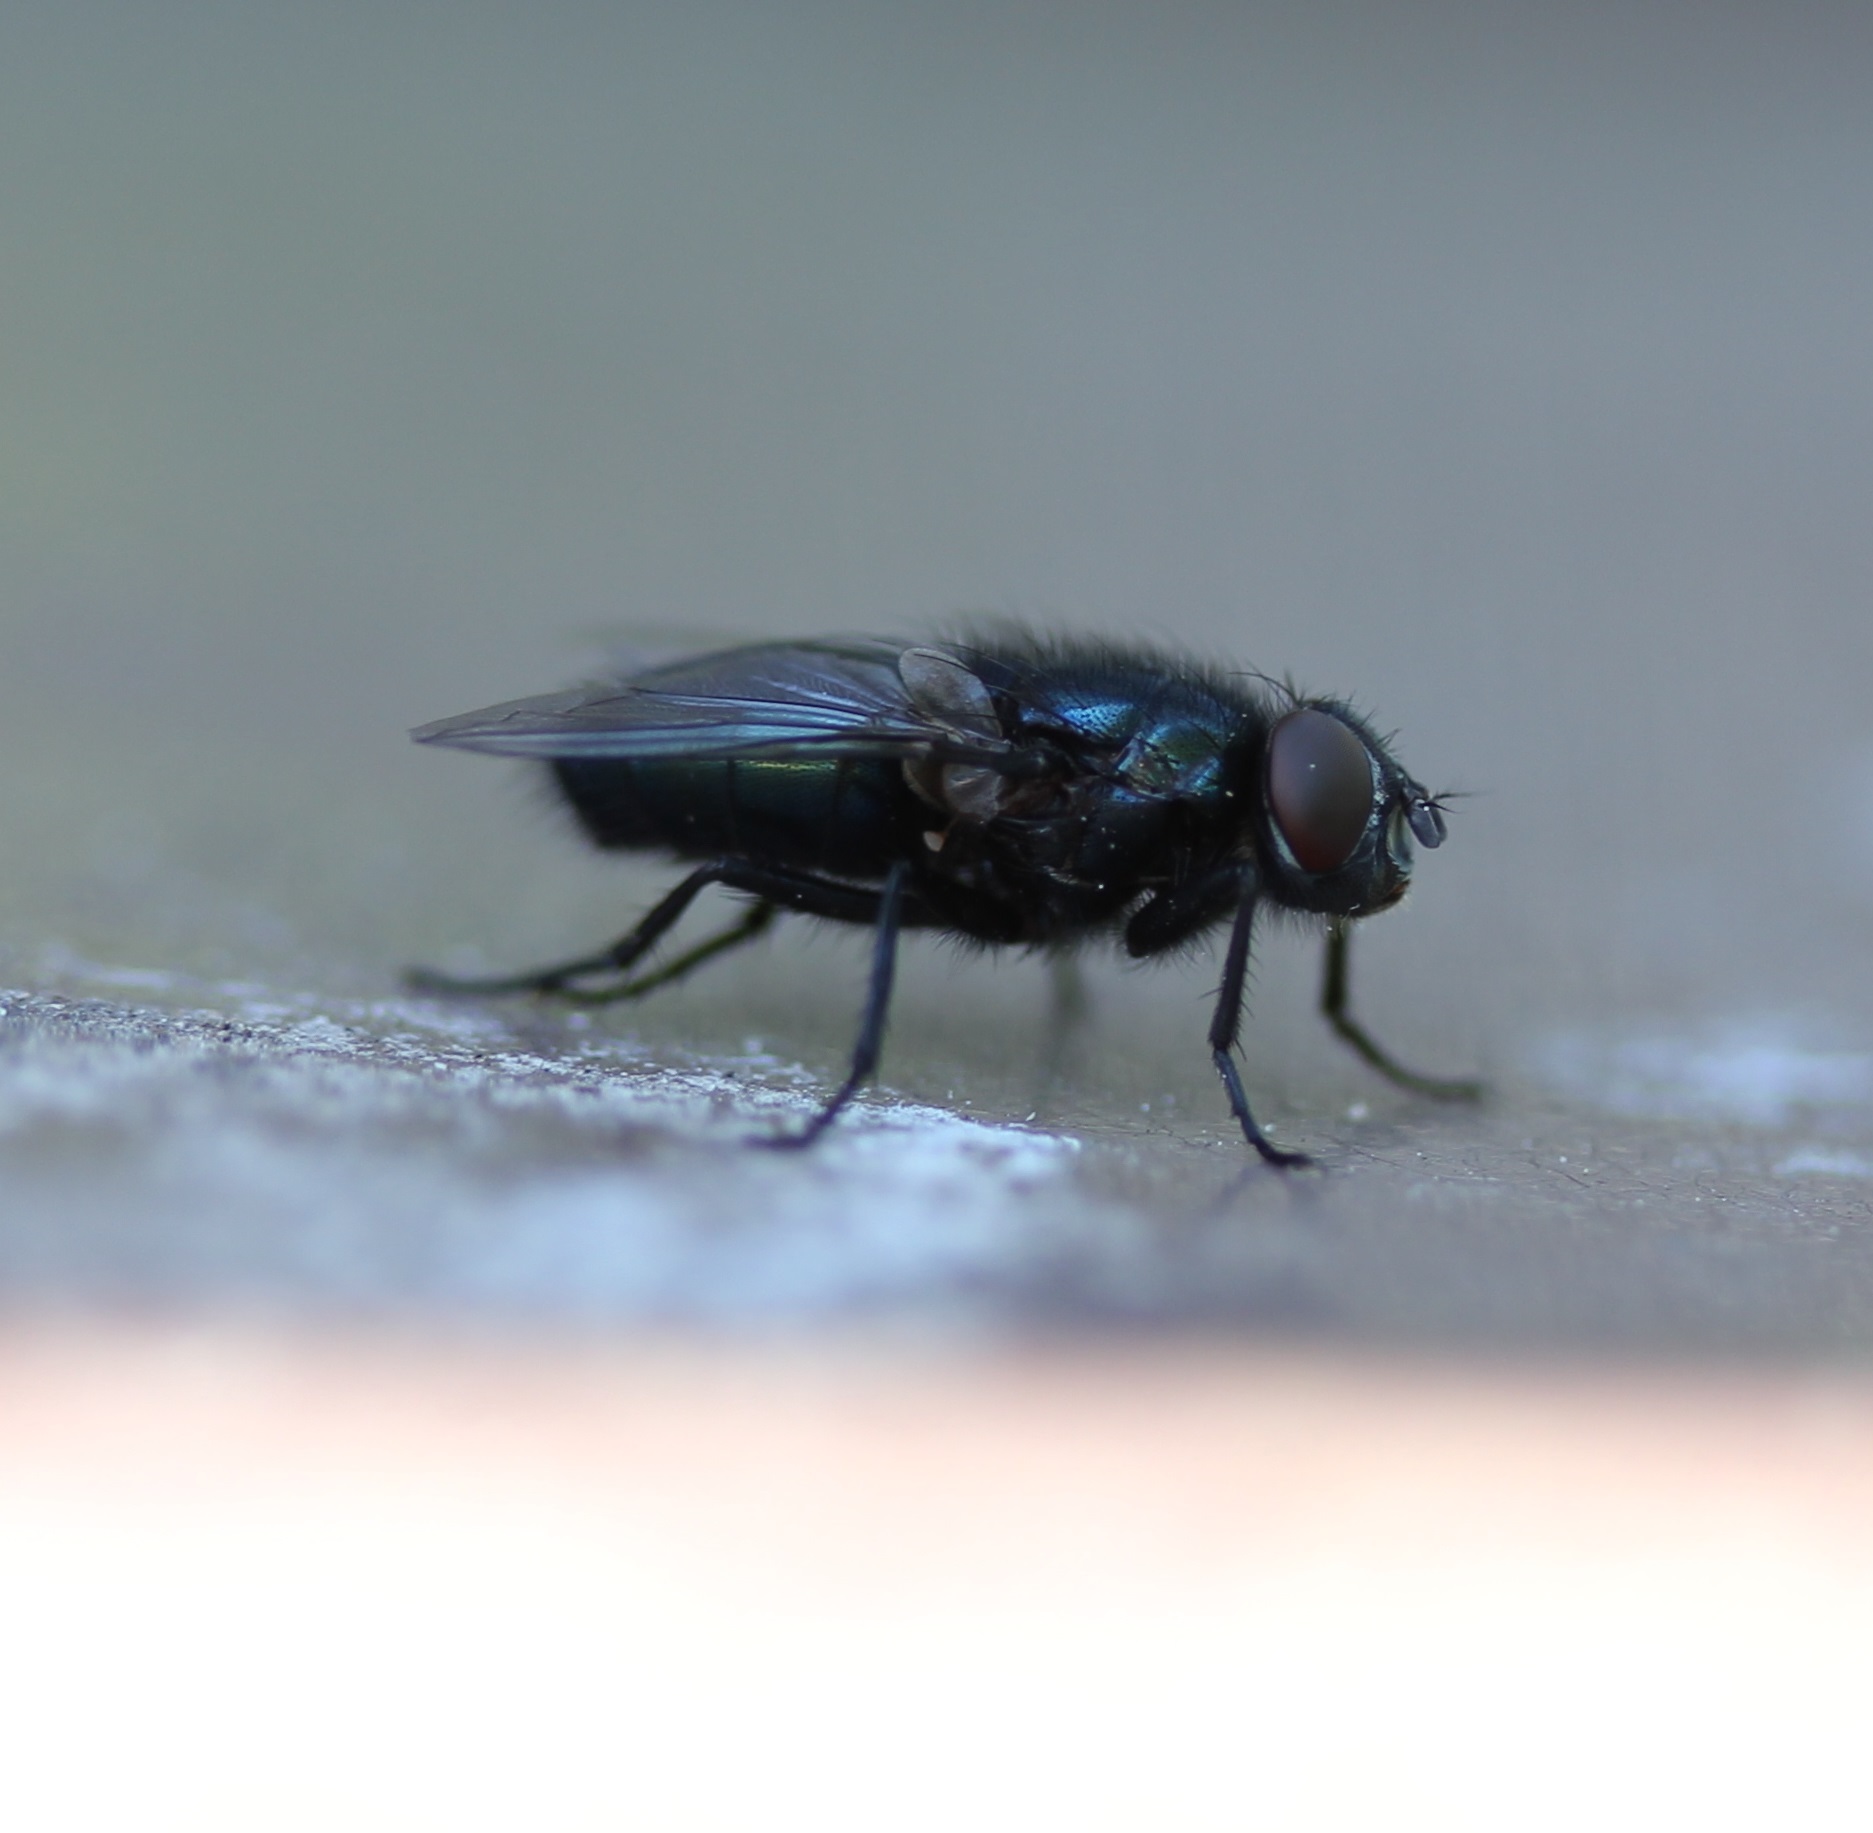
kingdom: Animalia
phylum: Arthropoda
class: Insecta
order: Diptera
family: Calliphoridae
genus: Protophormia
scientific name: Protophormia terraenovae
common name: Blackbottle
